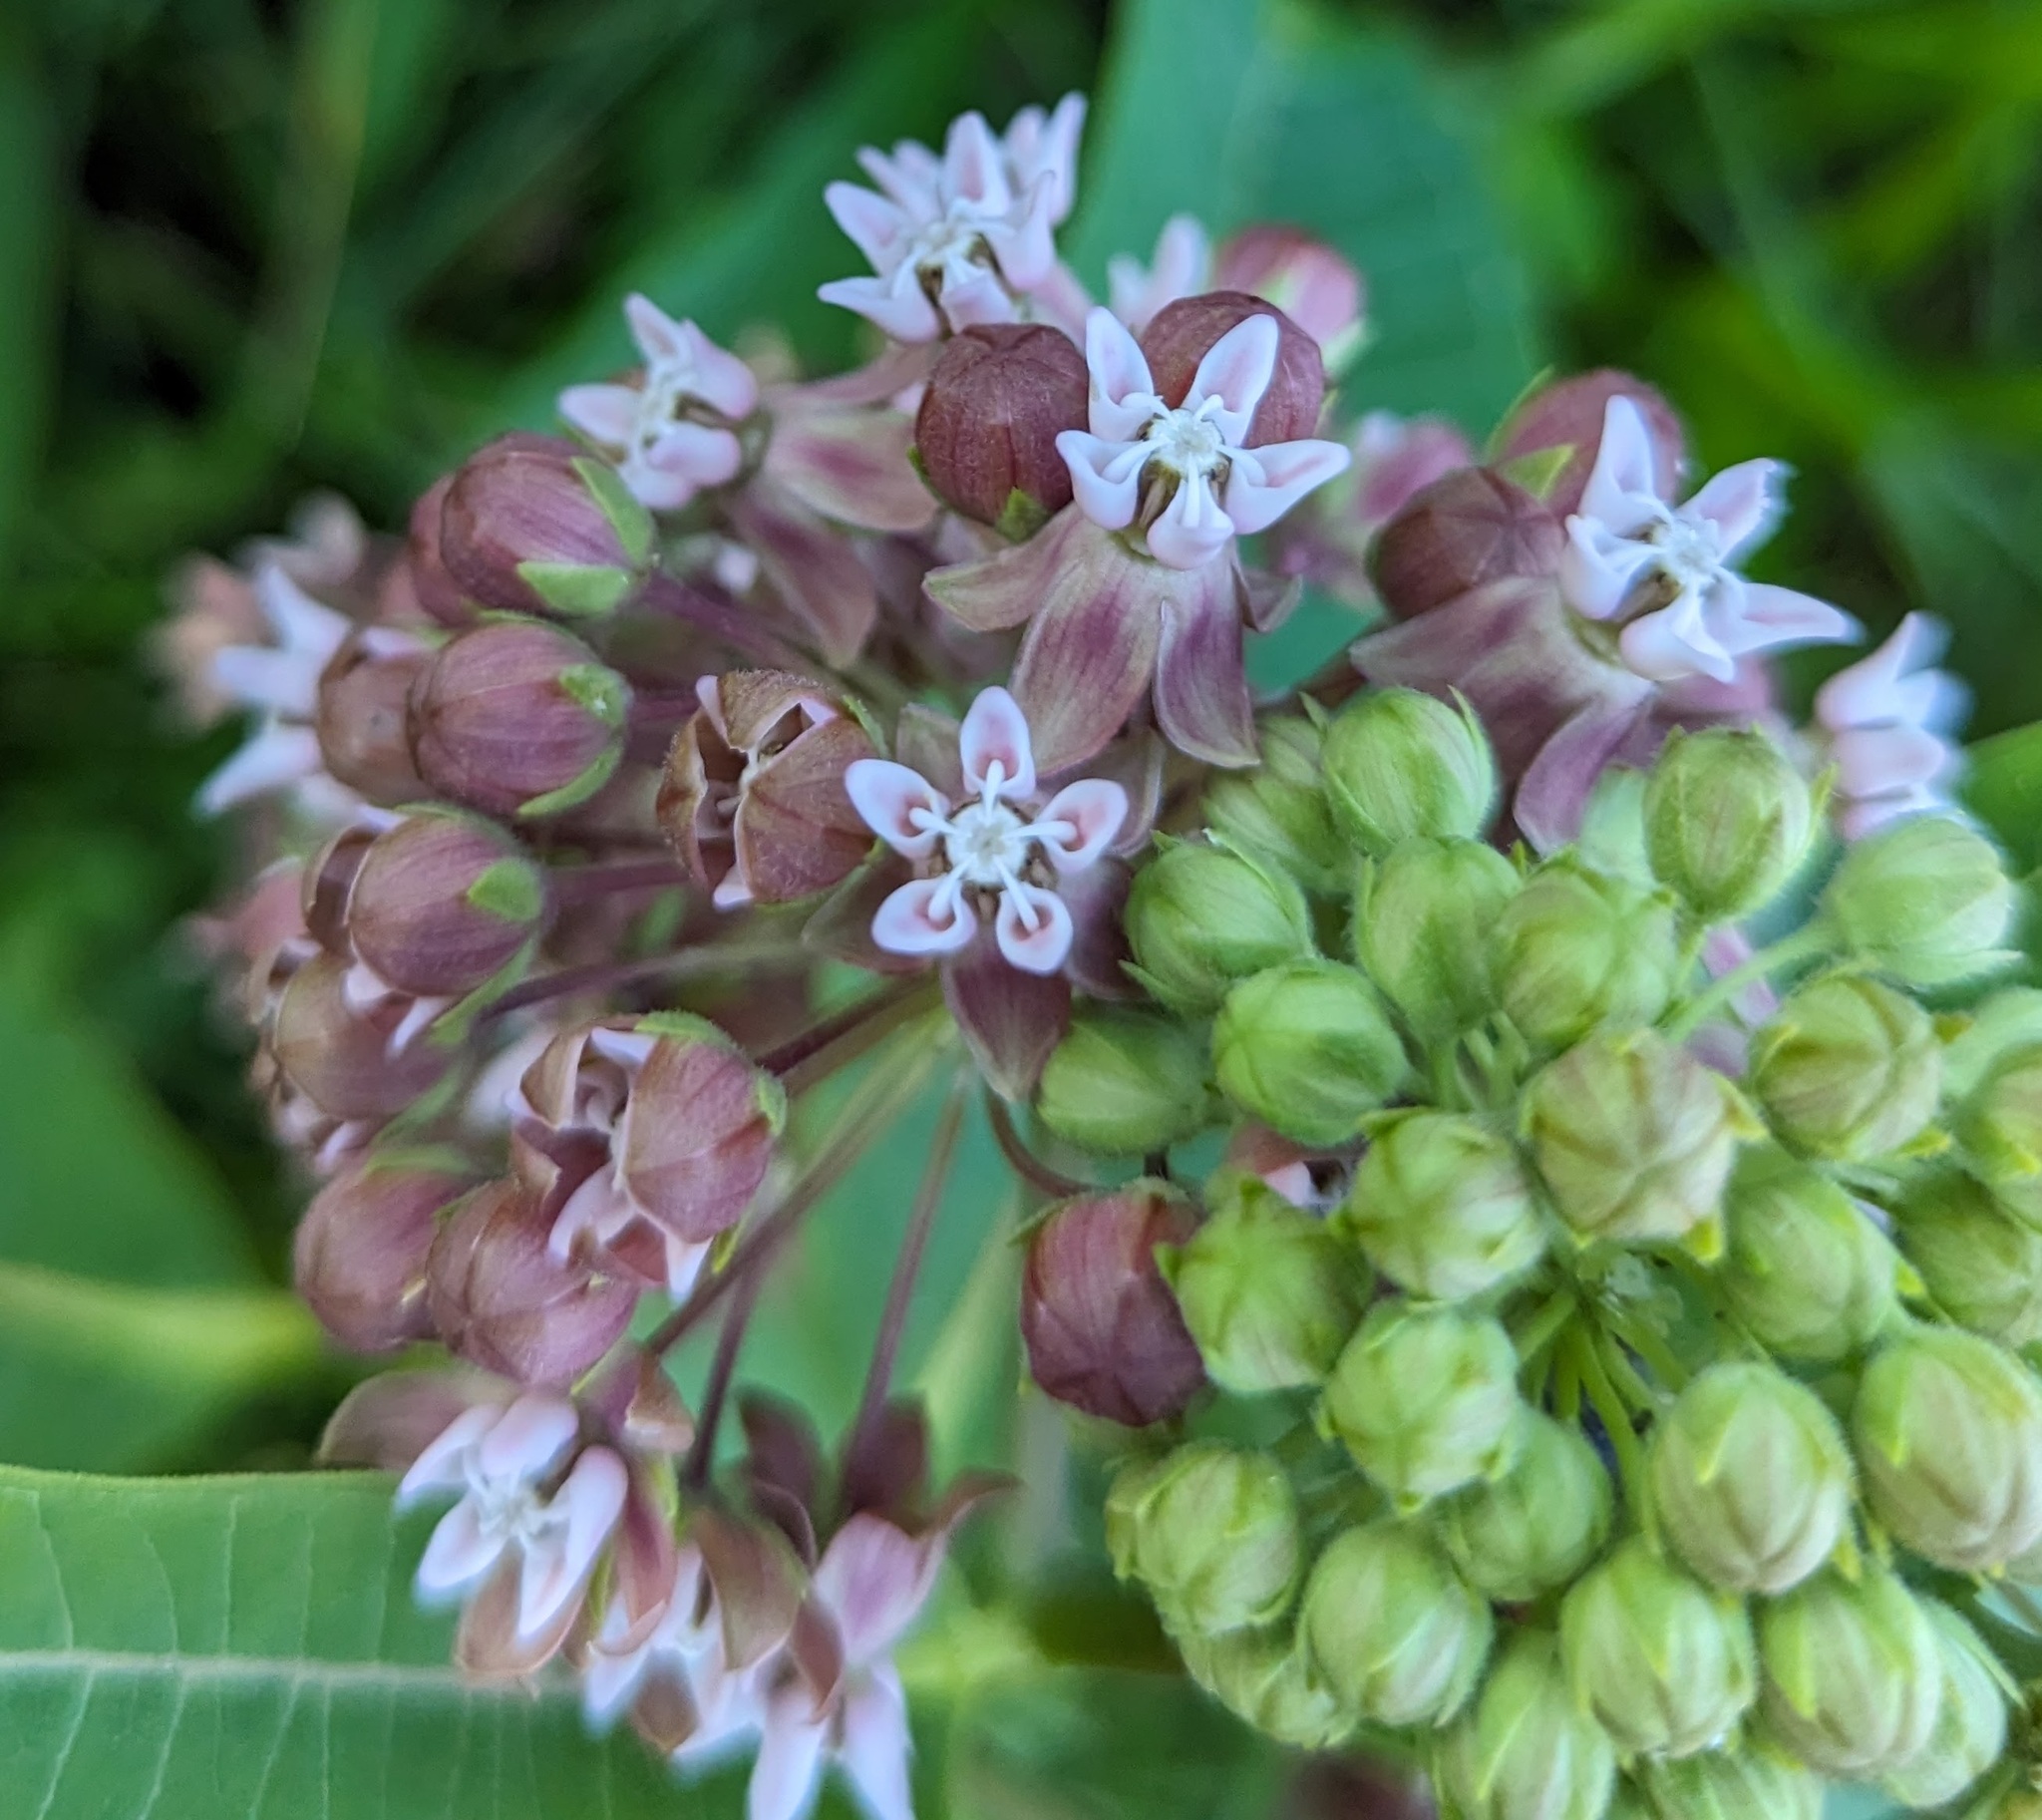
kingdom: Plantae
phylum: Tracheophyta
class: Magnoliopsida
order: Gentianales
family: Apocynaceae
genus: Asclepias
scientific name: Asclepias syriaca
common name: Common milkweed
